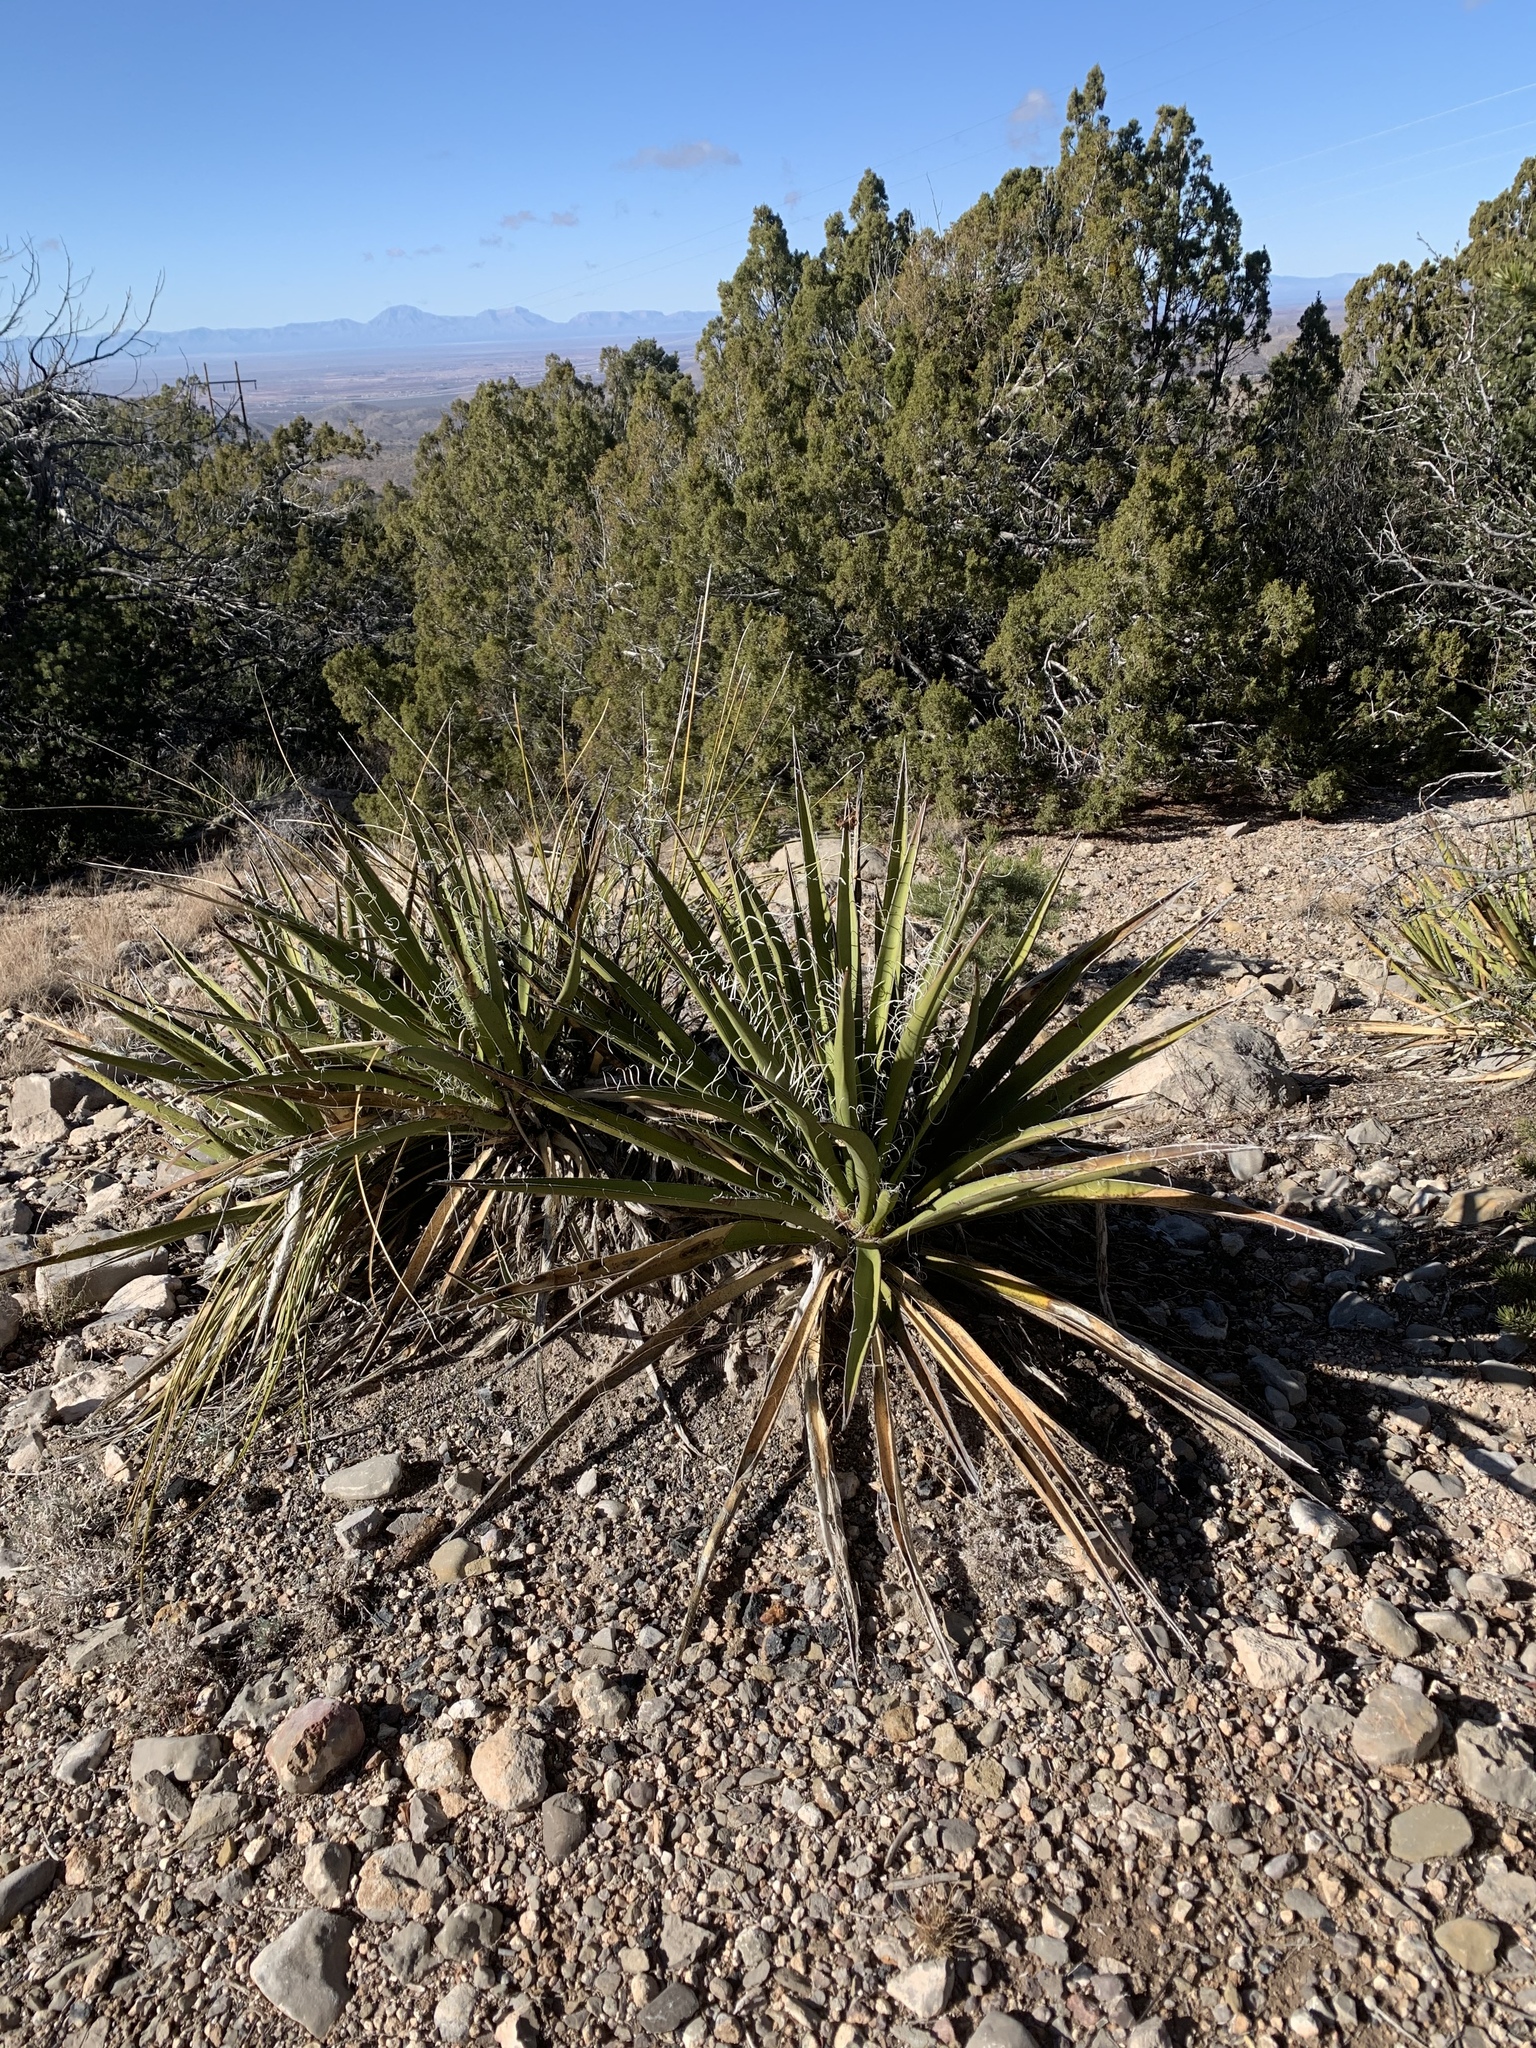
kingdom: Plantae
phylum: Tracheophyta
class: Liliopsida
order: Asparagales
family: Asparagaceae
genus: Yucca
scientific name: Yucca baccata
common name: Banana yucca
